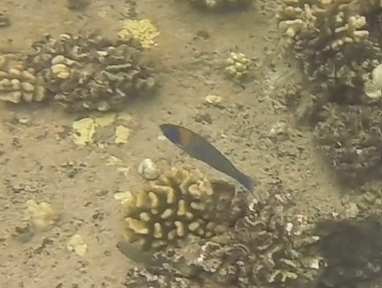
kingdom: Animalia
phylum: Chordata
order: Perciformes
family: Labridae
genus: Thalassoma
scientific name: Thalassoma duperrey
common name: Saddle wrasse
